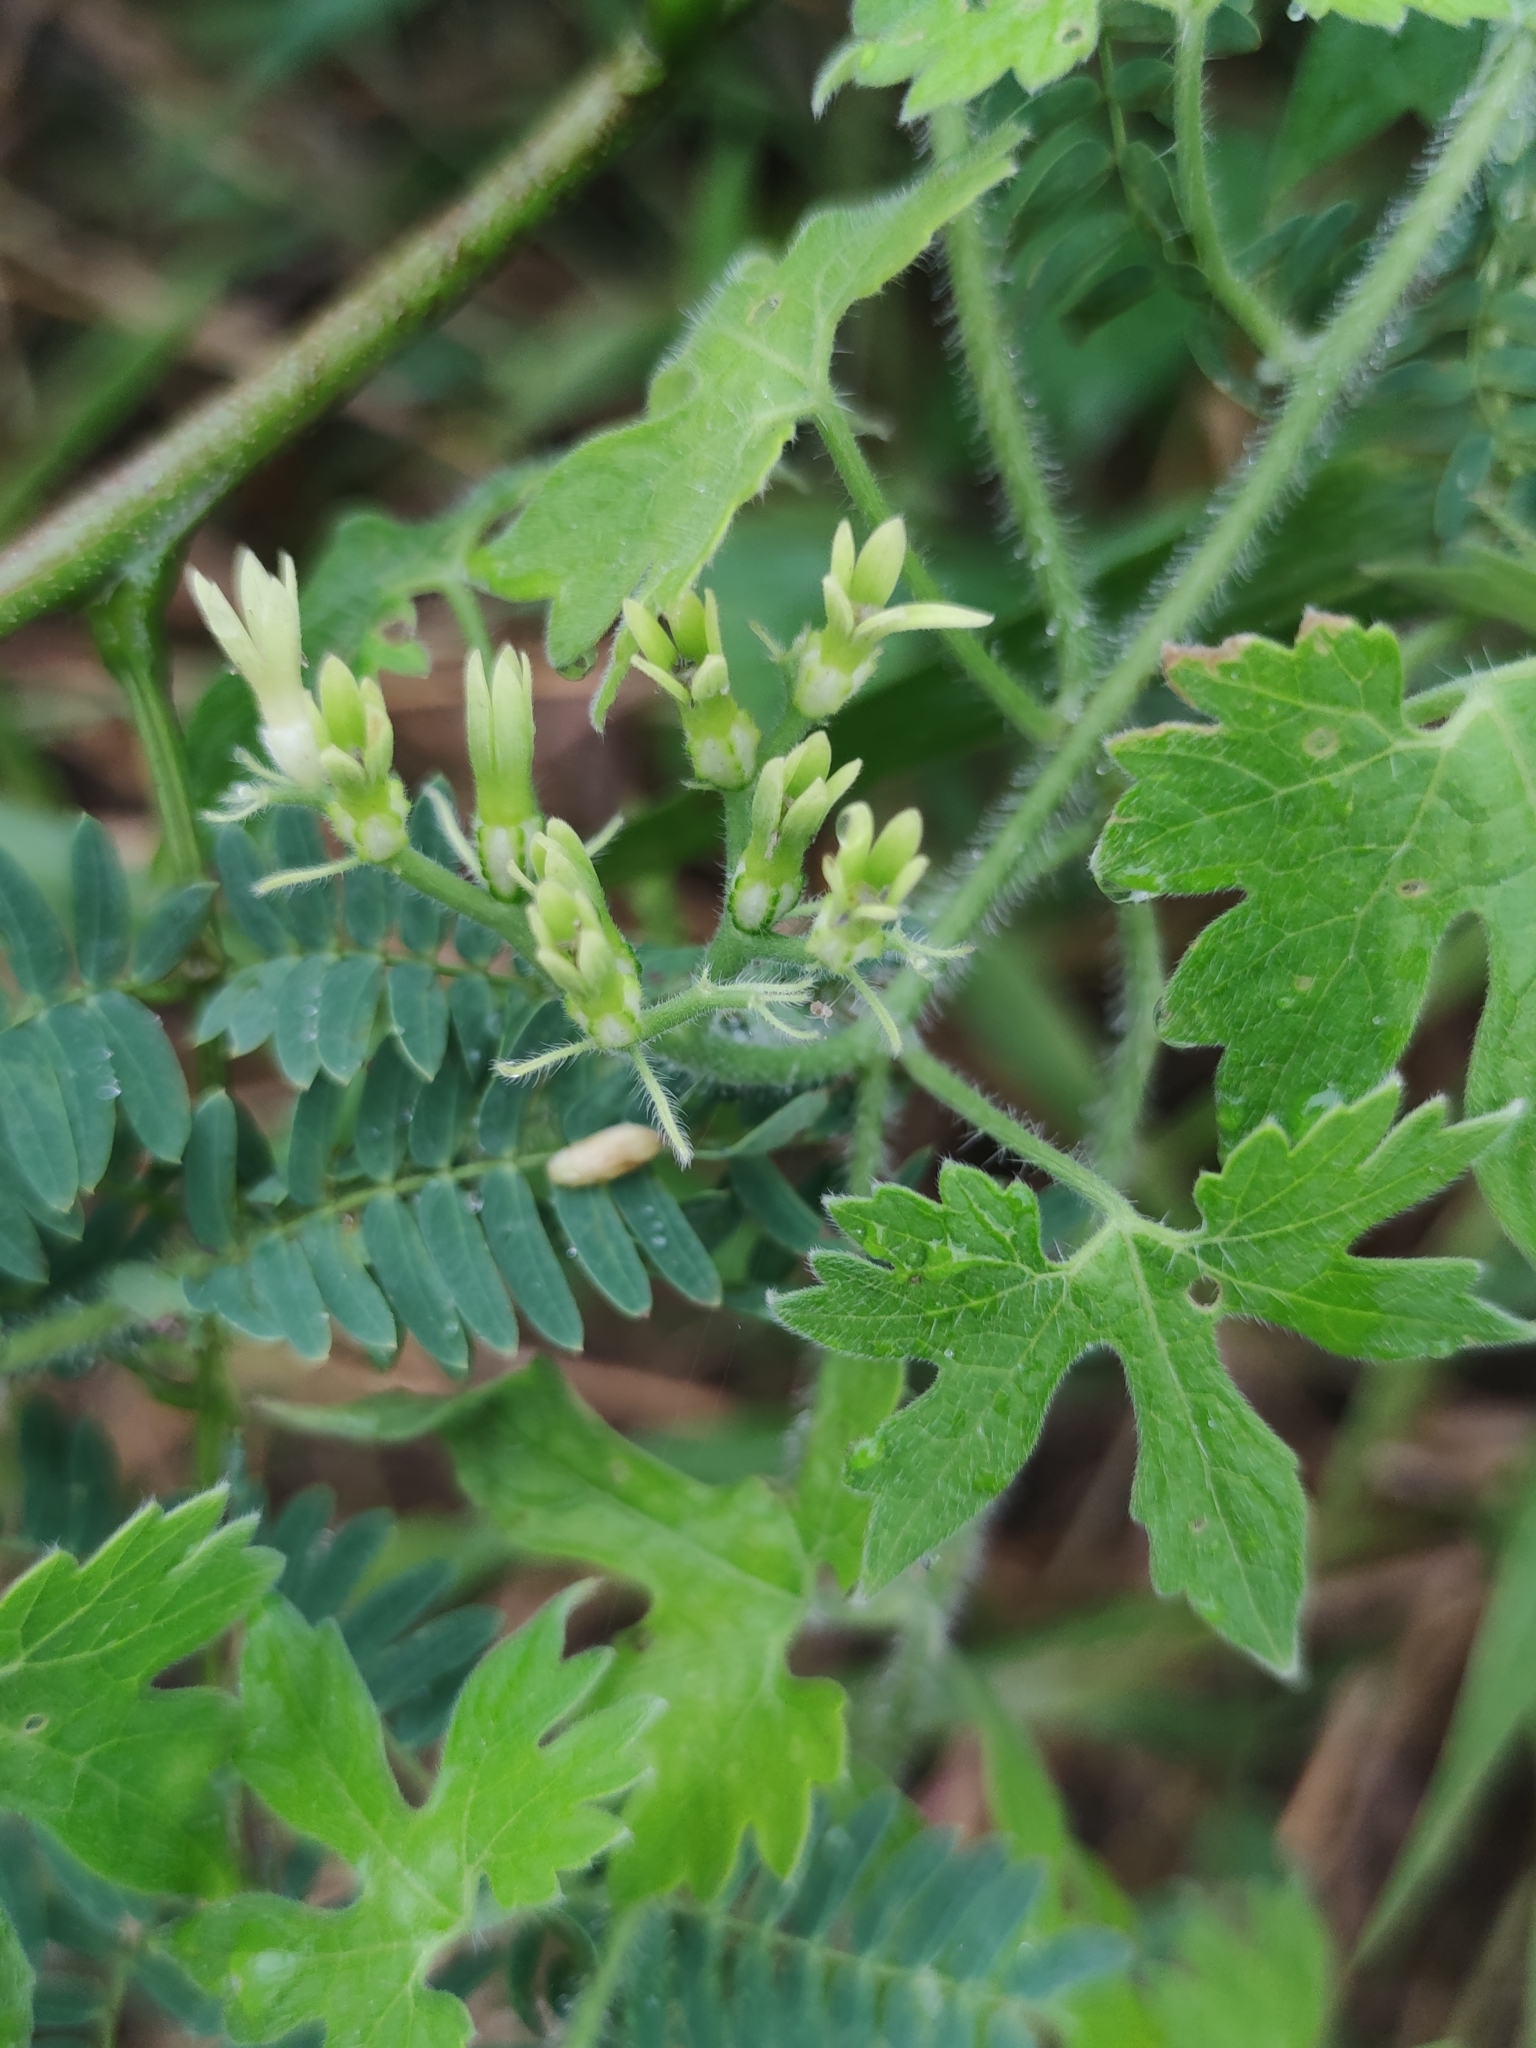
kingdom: Plantae
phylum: Tracheophyta
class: Magnoliopsida
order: Cornales
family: Loasaceae
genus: Gronovia
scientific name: Gronovia scandens
